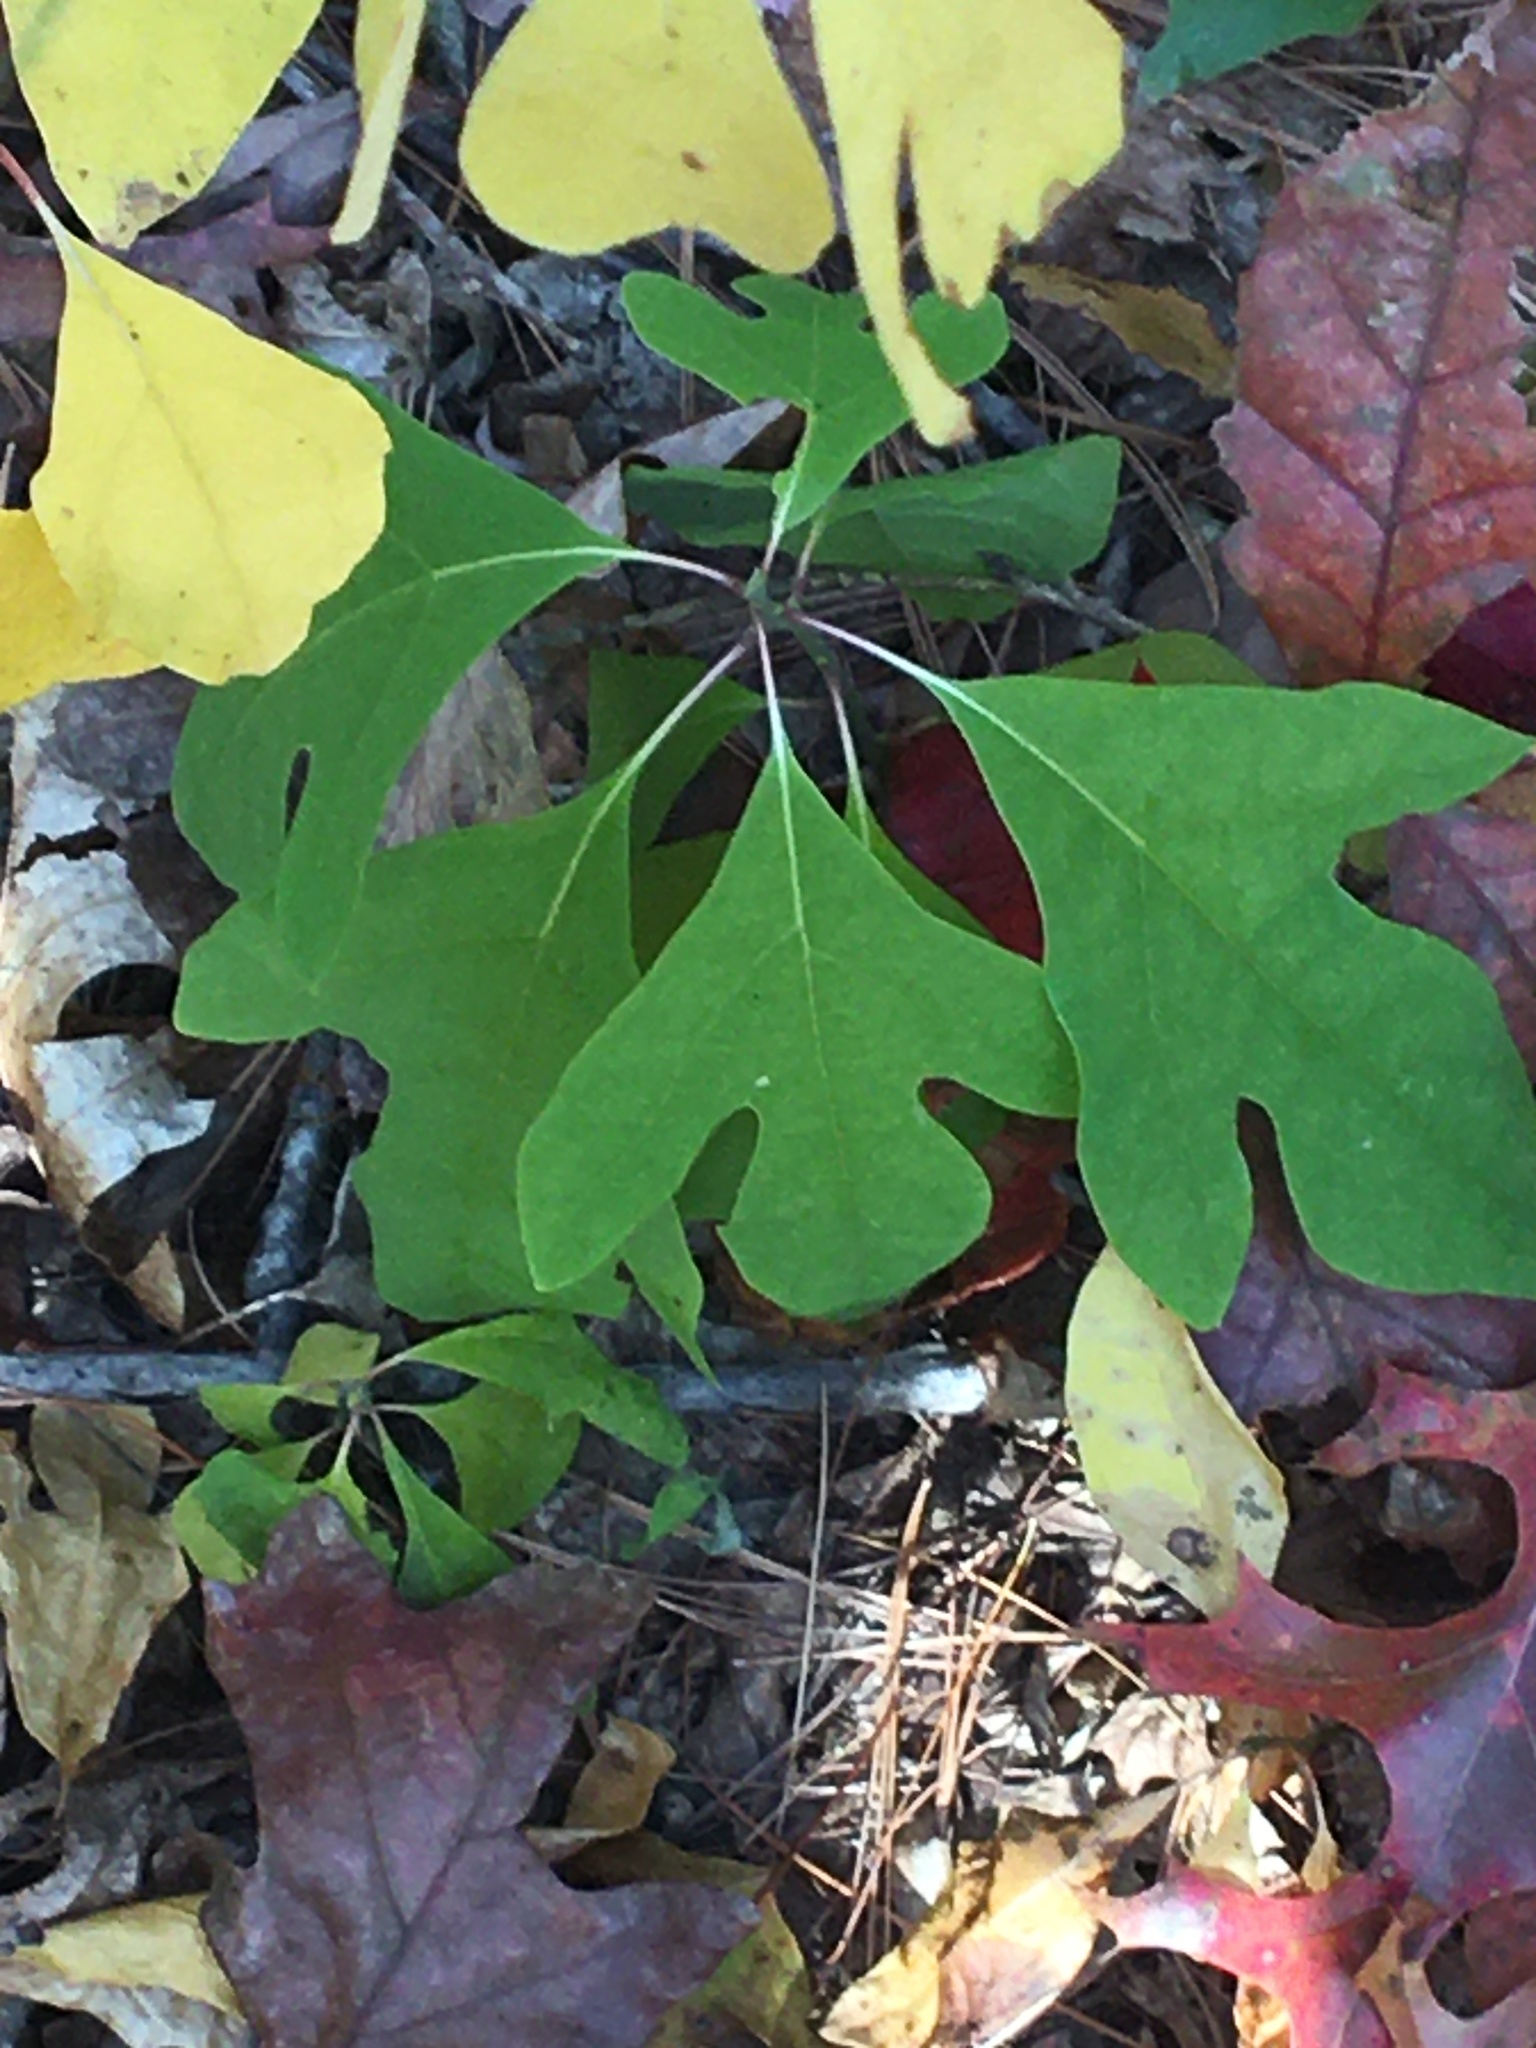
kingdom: Plantae
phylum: Tracheophyta
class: Magnoliopsida
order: Laurales
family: Lauraceae
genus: Sassafras
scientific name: Sassafras albidum
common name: Sassafras
